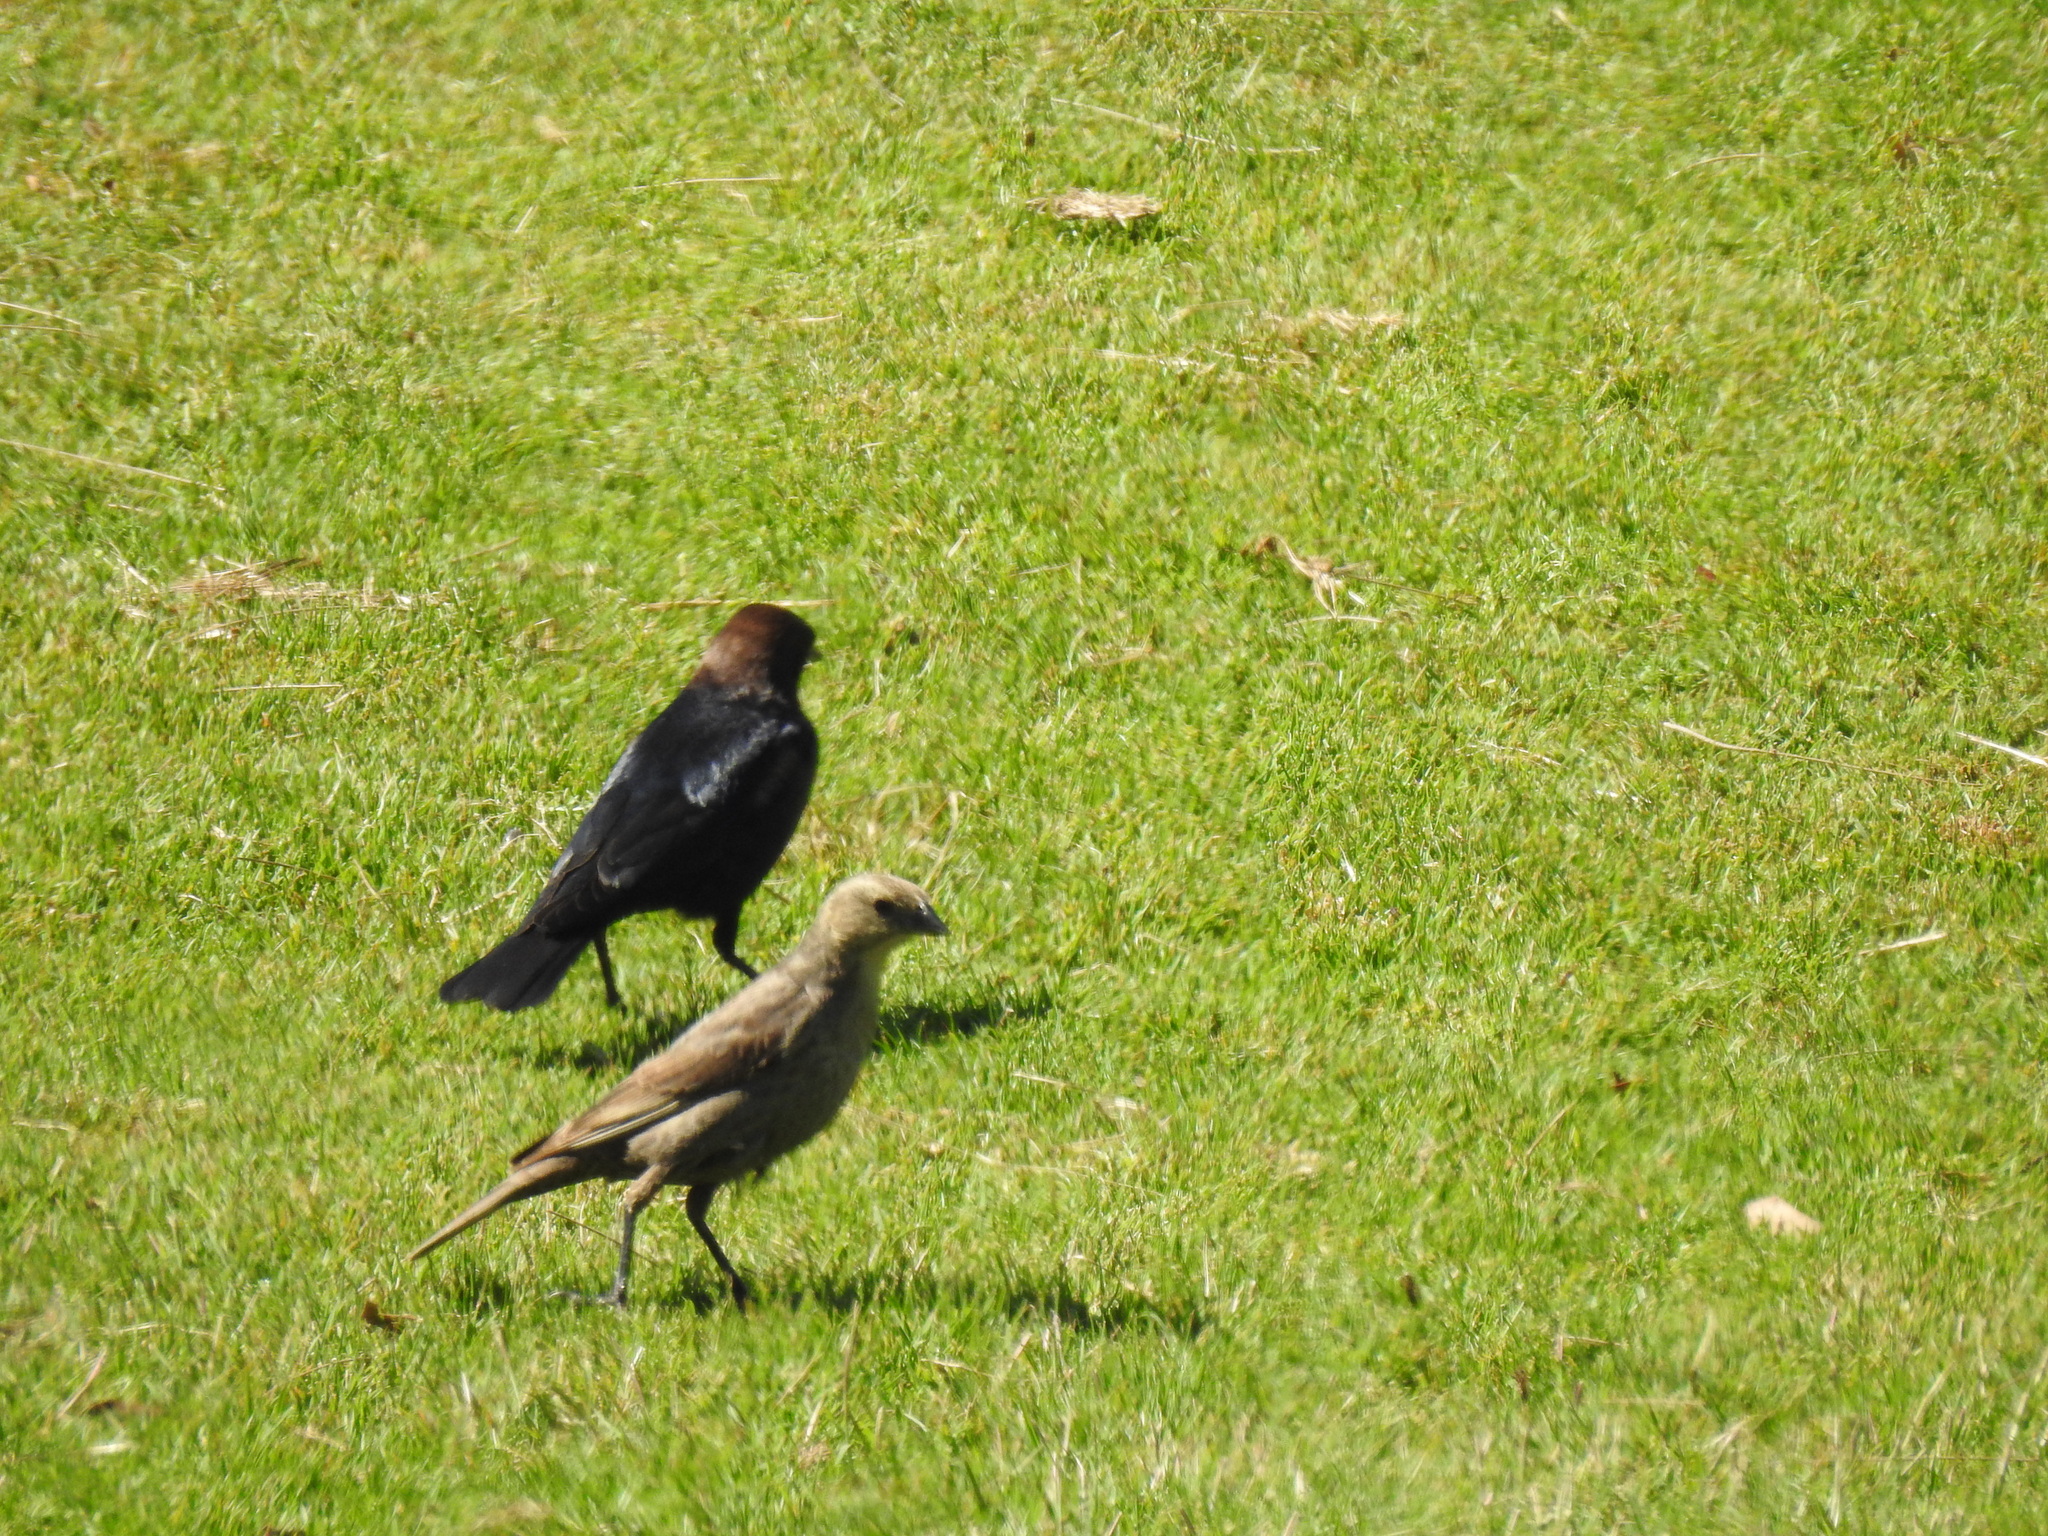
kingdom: Animalia
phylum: Chordata
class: Aves
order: Passeriformes
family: Icteridae
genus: Molothrus
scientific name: Molothrus ater
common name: Brown-headed cowbird
